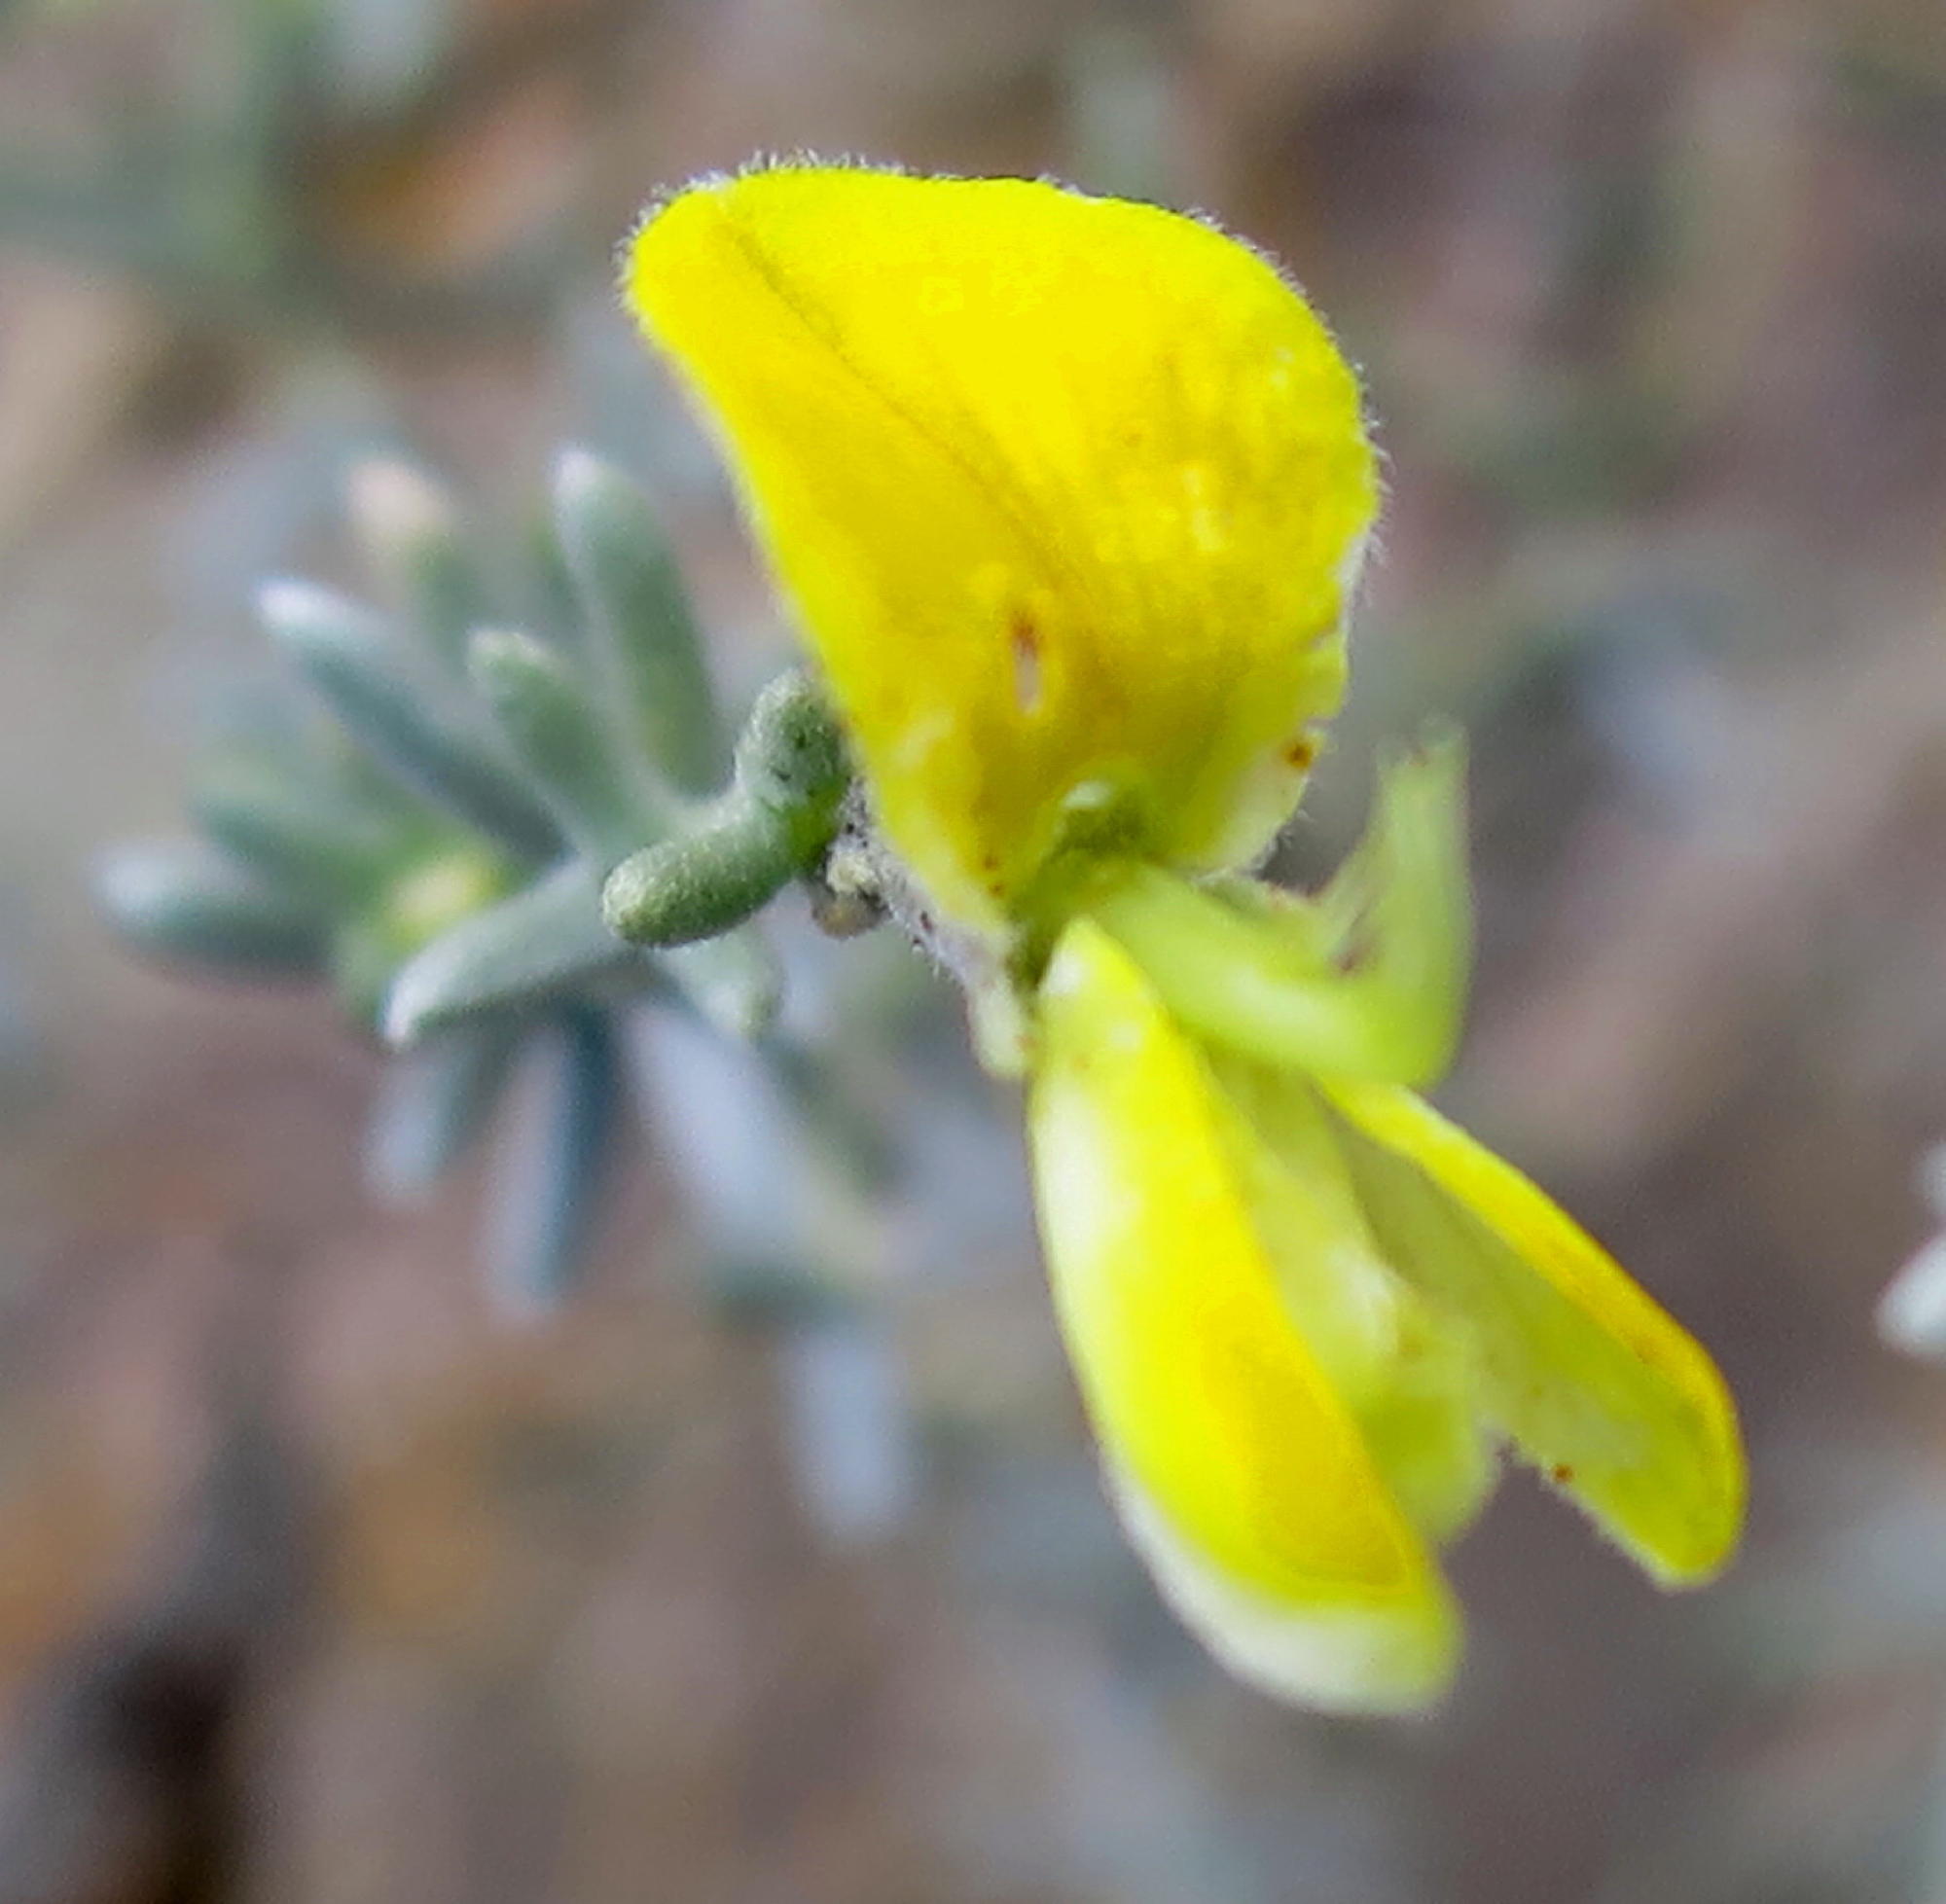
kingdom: Plantae
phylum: Tracheophyta
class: Magnoliopsida
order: Fabales
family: Fabaceae
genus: Aspalathus
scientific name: Aspalathus pedunculata
